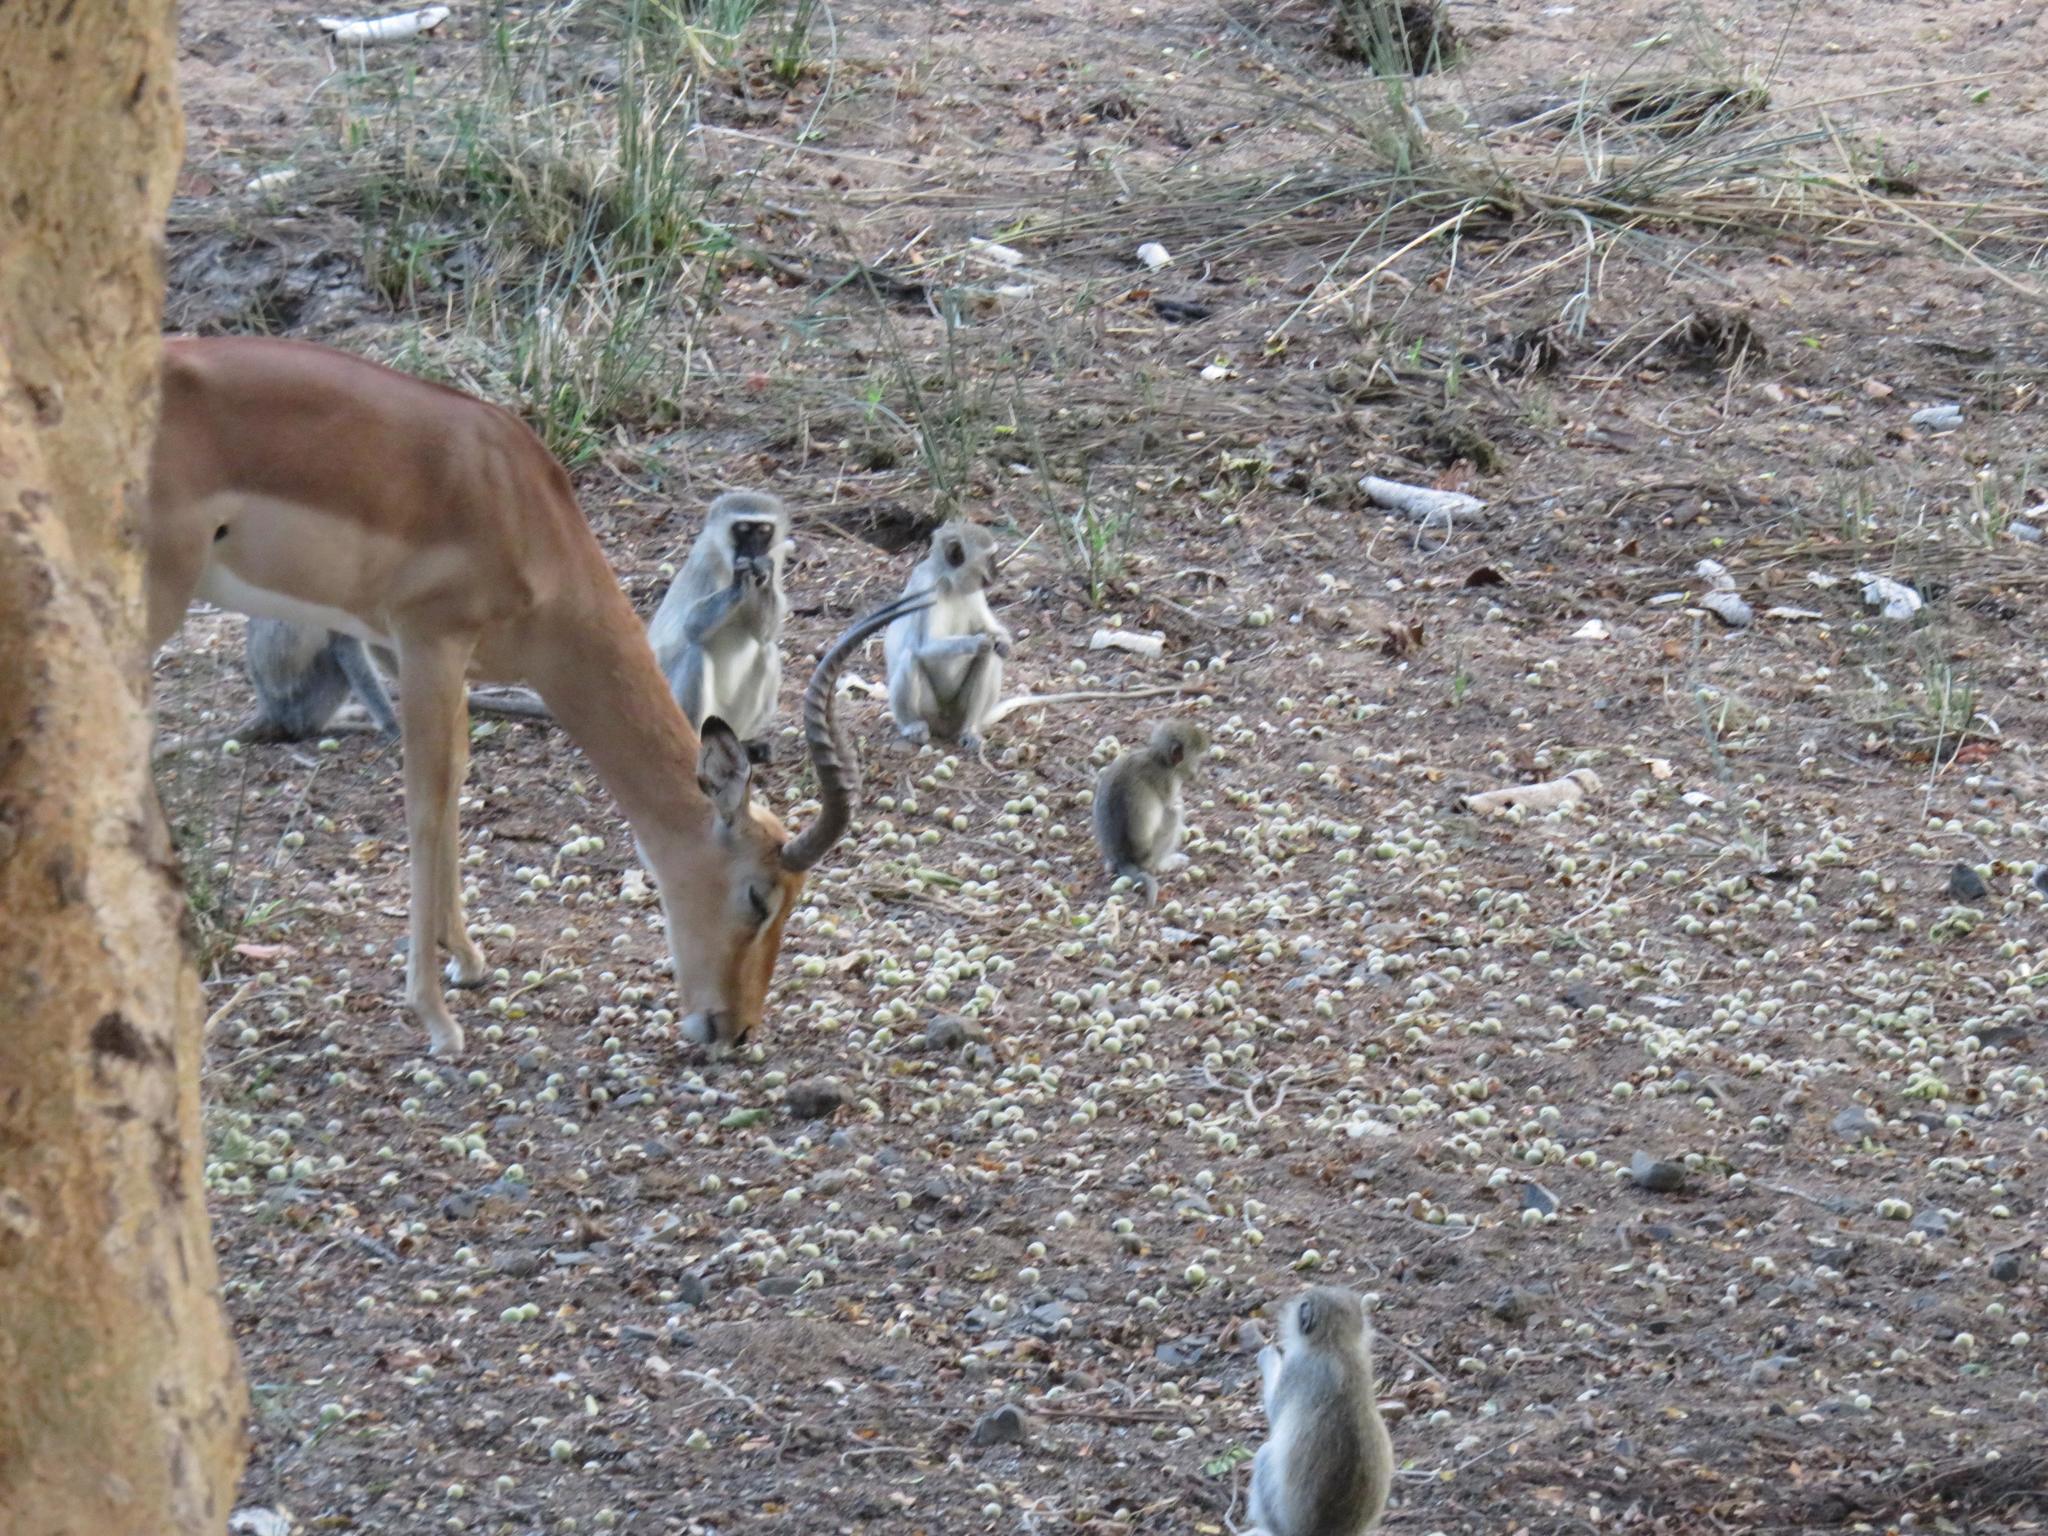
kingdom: Animalia
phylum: Chordata
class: Mammalia
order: Artiodactyla
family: Bovidae
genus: Aepyceros
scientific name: Aepyceros melampus
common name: Impala
